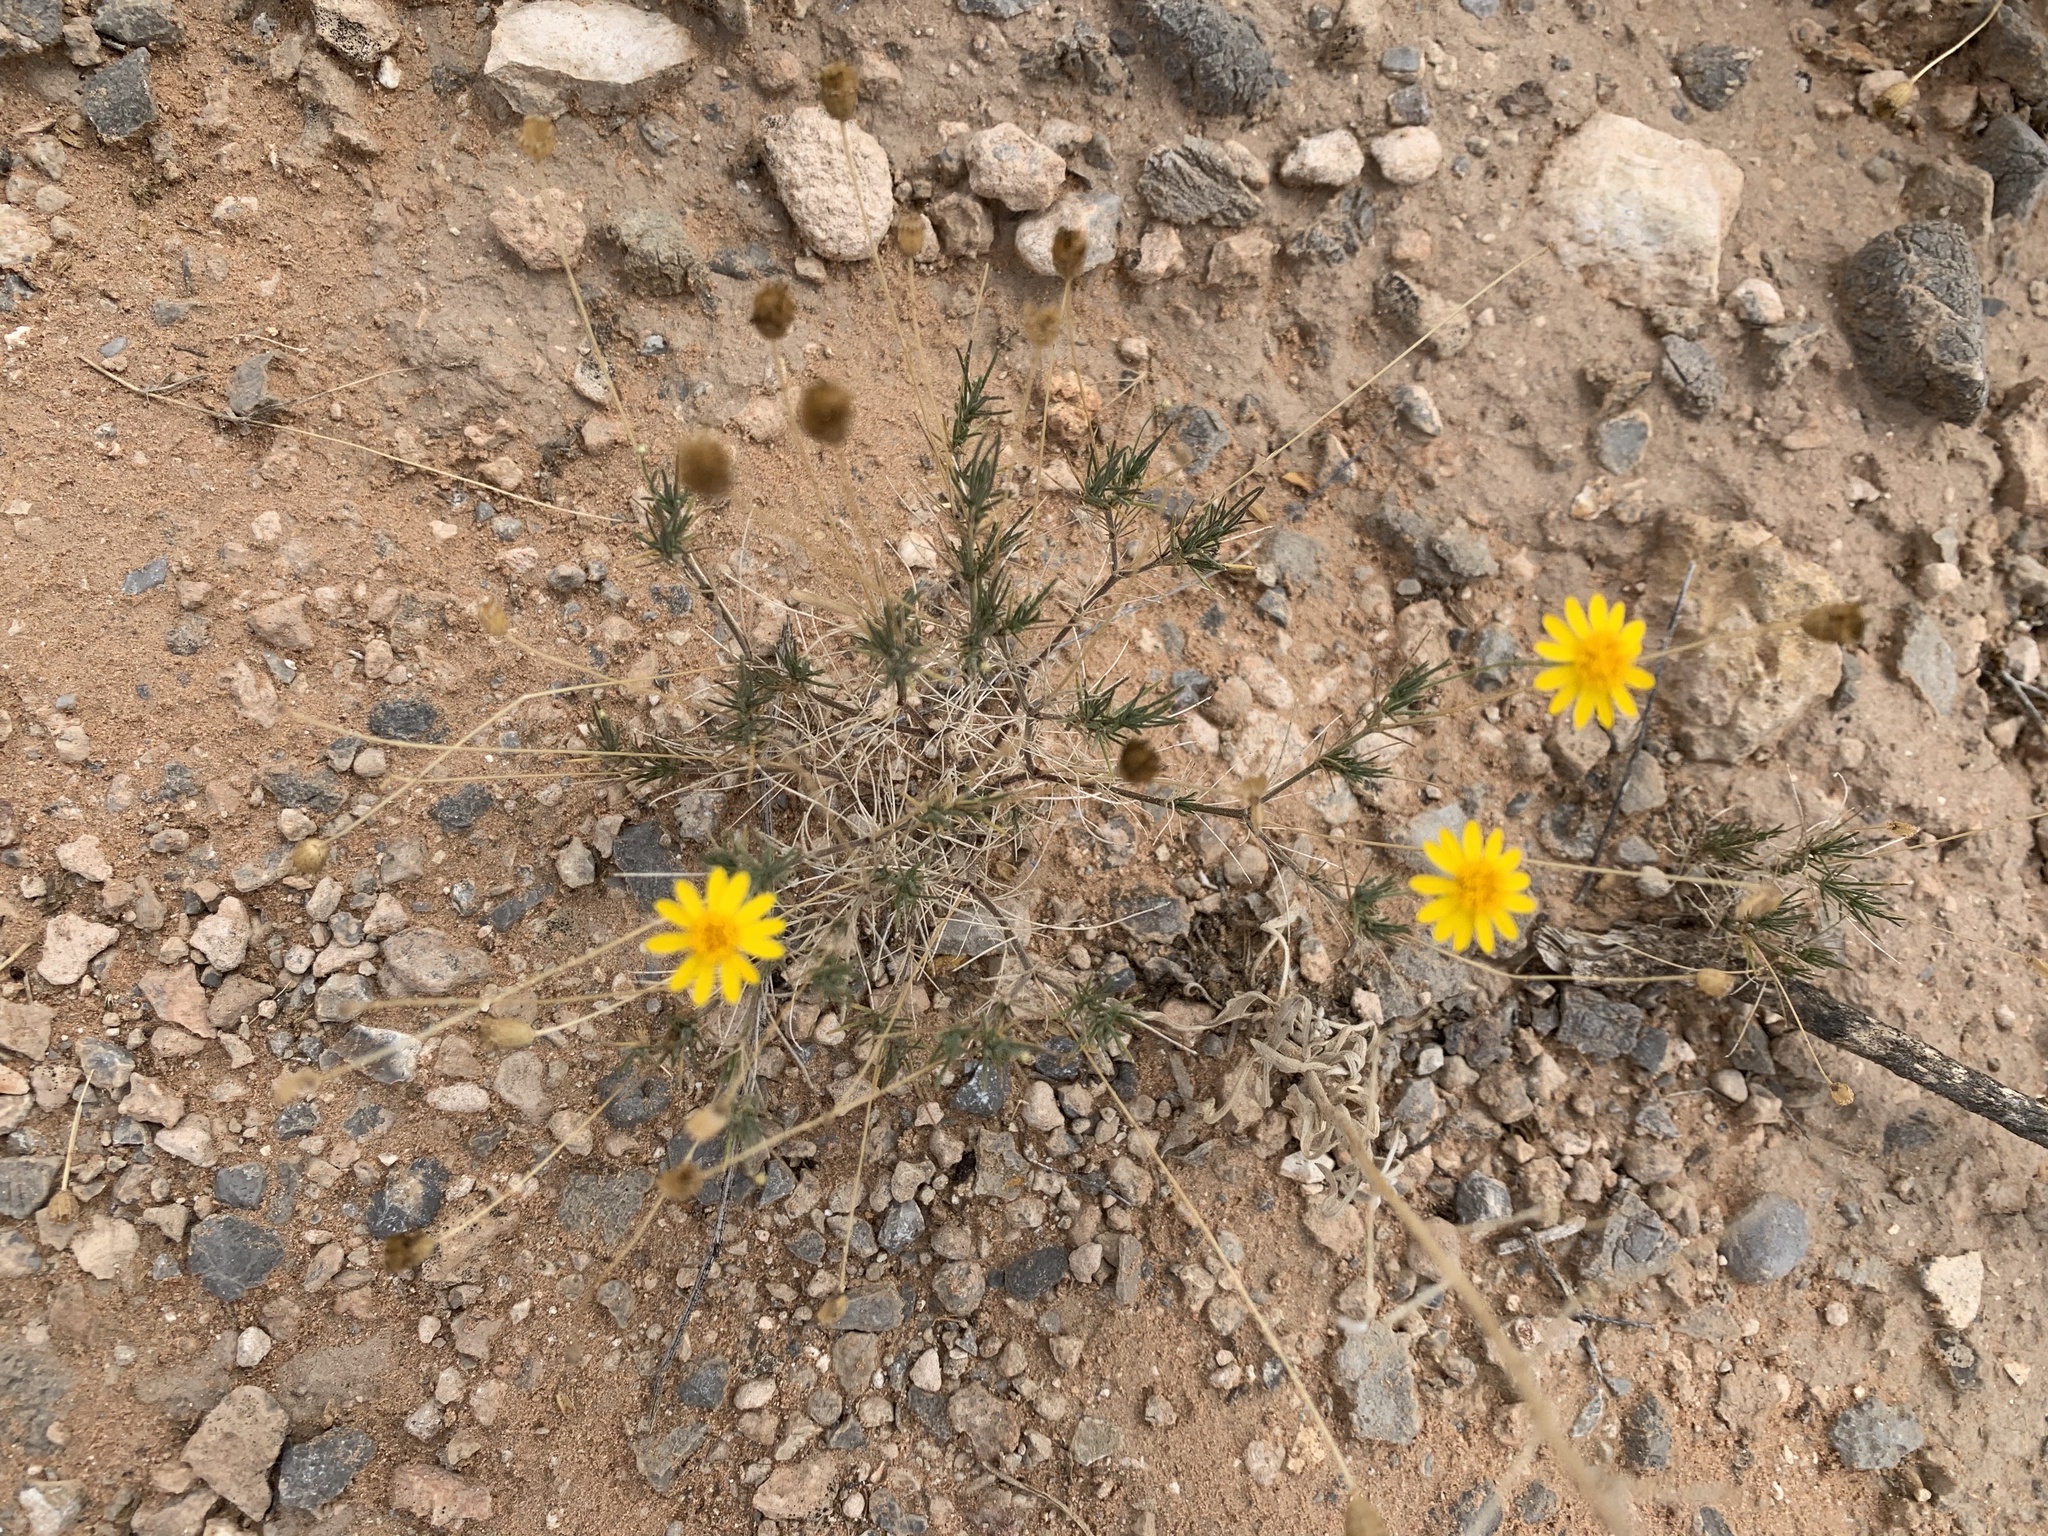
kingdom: Plantae
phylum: Tracheophyta
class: Magnoliopsida
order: Asterales
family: Asteraceae
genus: Thymophylla
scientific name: Thymophylla pentachaeta
